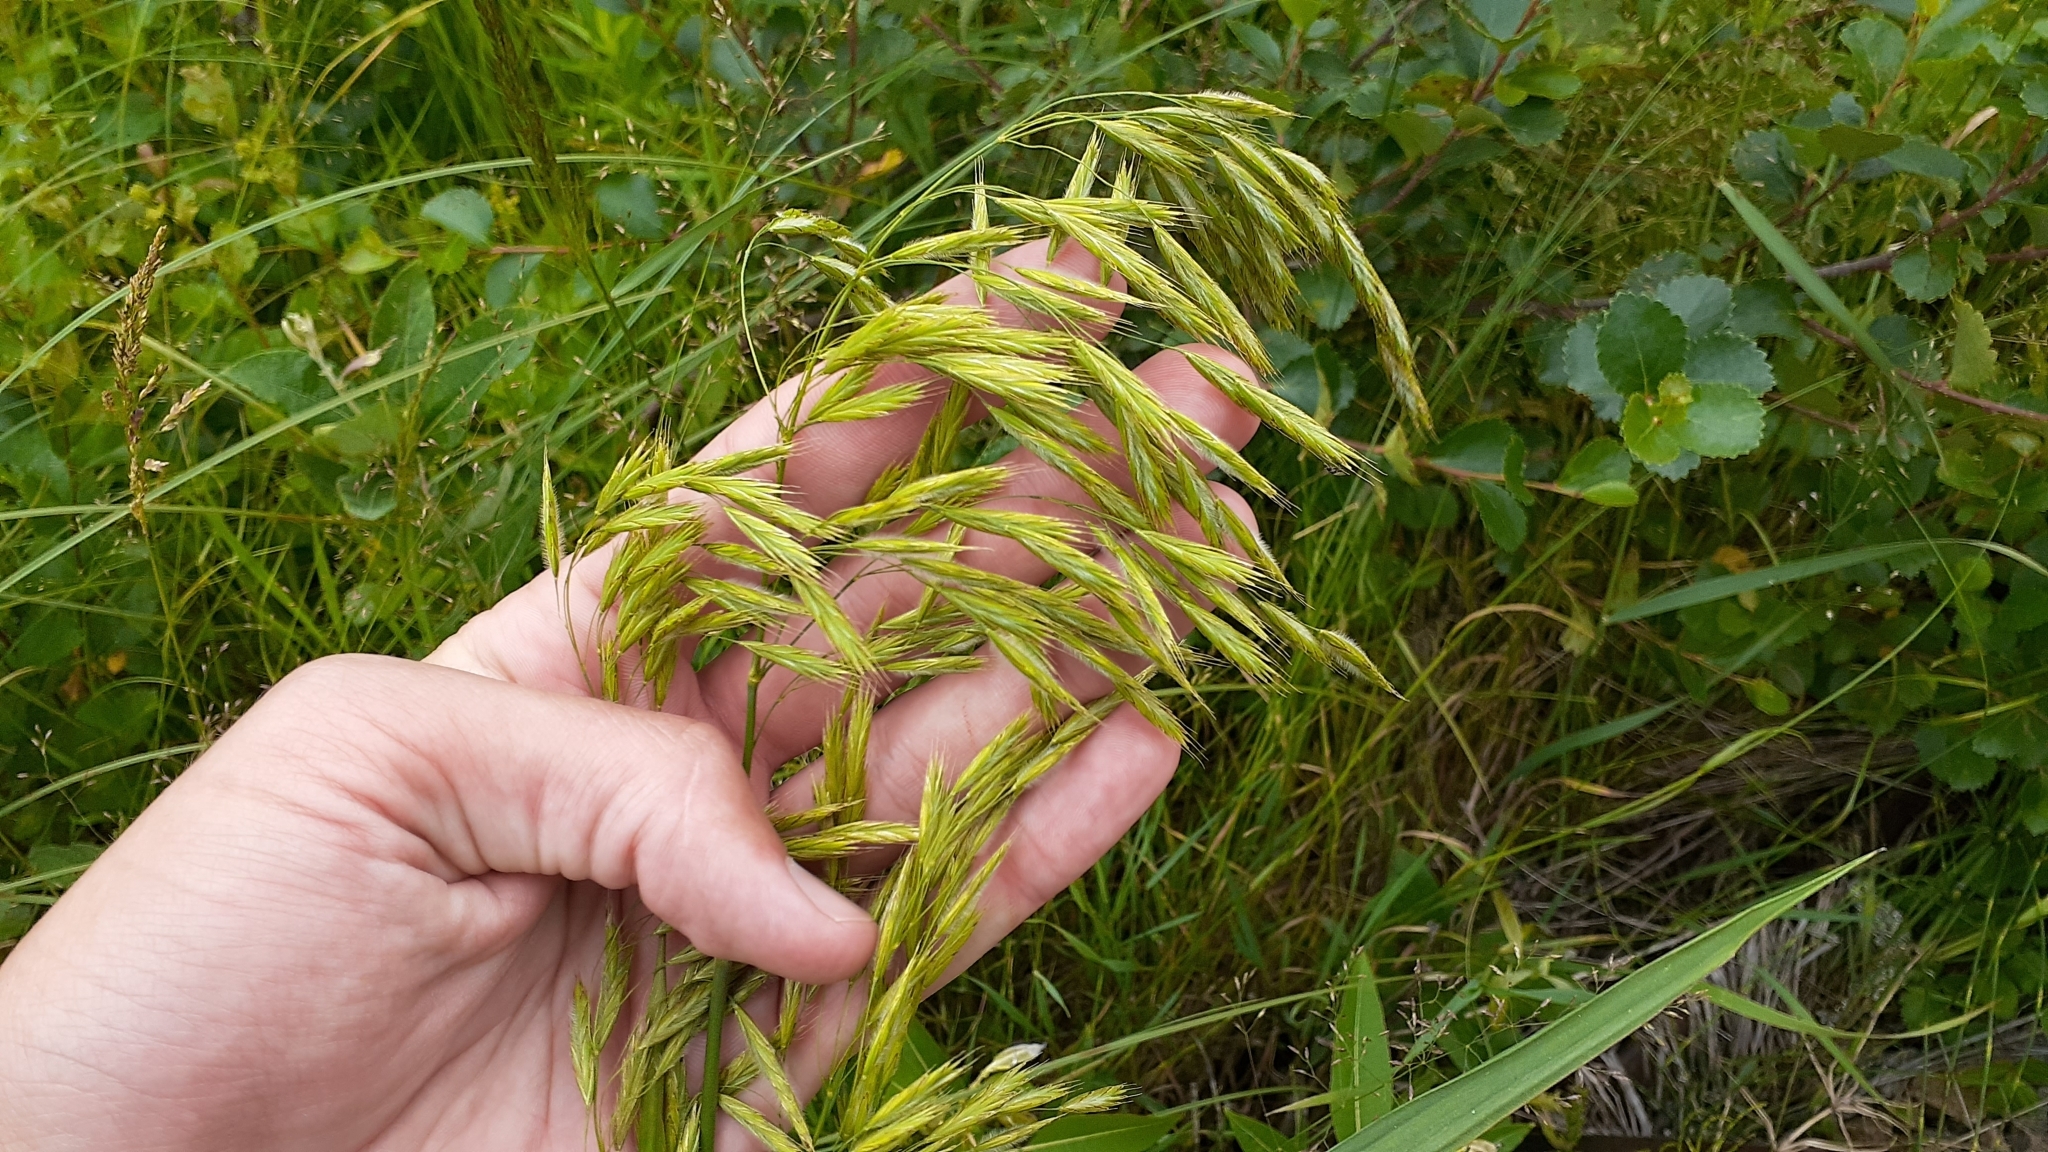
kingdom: Plantae
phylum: Tracheophyta
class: Liliopsida
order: Poales
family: Poaceae
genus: Bromus
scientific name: Bromus ciliatus
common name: Fringe brome
